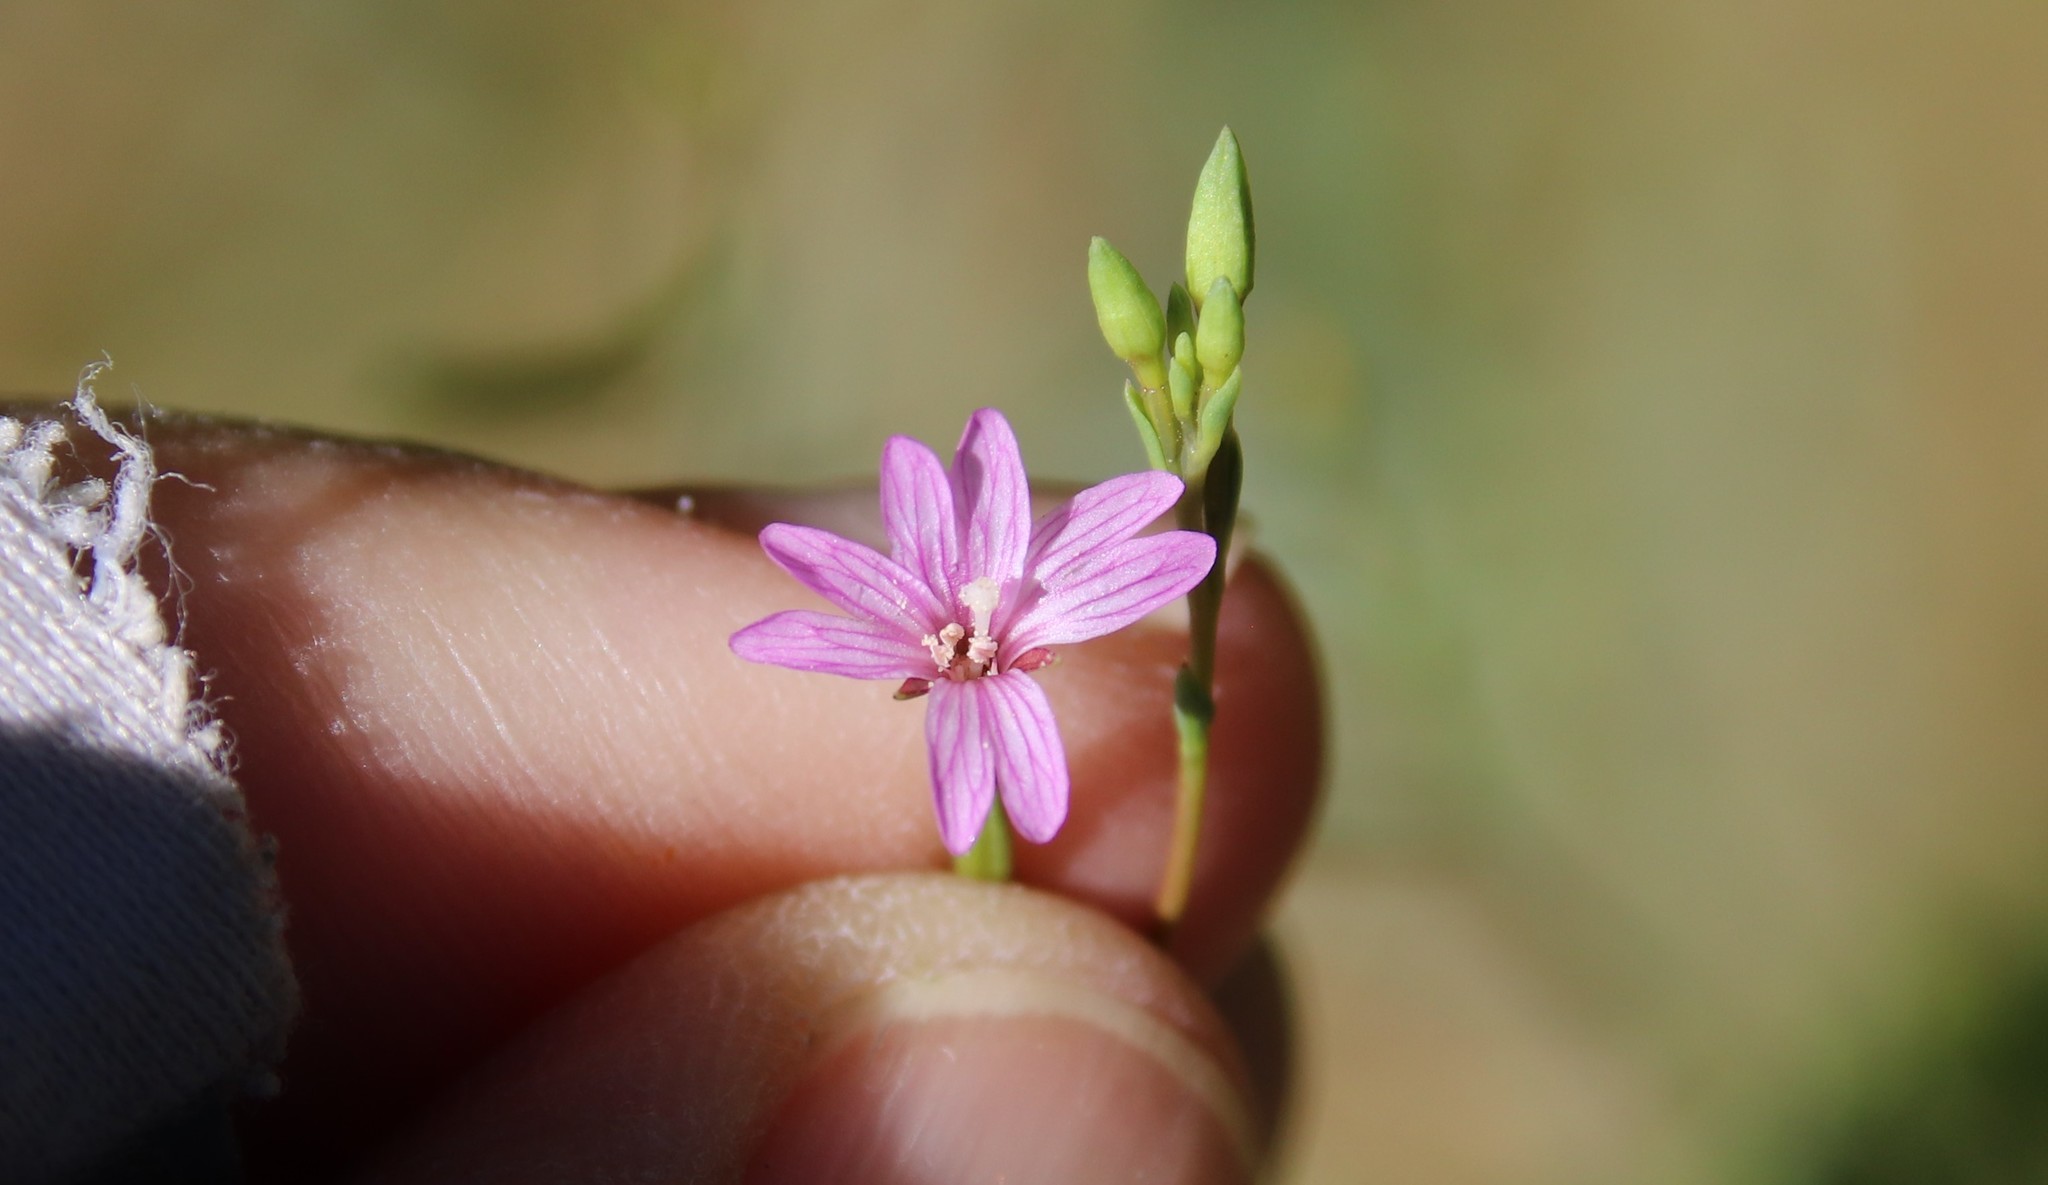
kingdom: Plantae
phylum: Tracheophyta
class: Magnoliopsida
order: Myrtales
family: Onagraceae
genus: Epilobium
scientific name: Epilobium brachycarpum
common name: Annual willowherb
